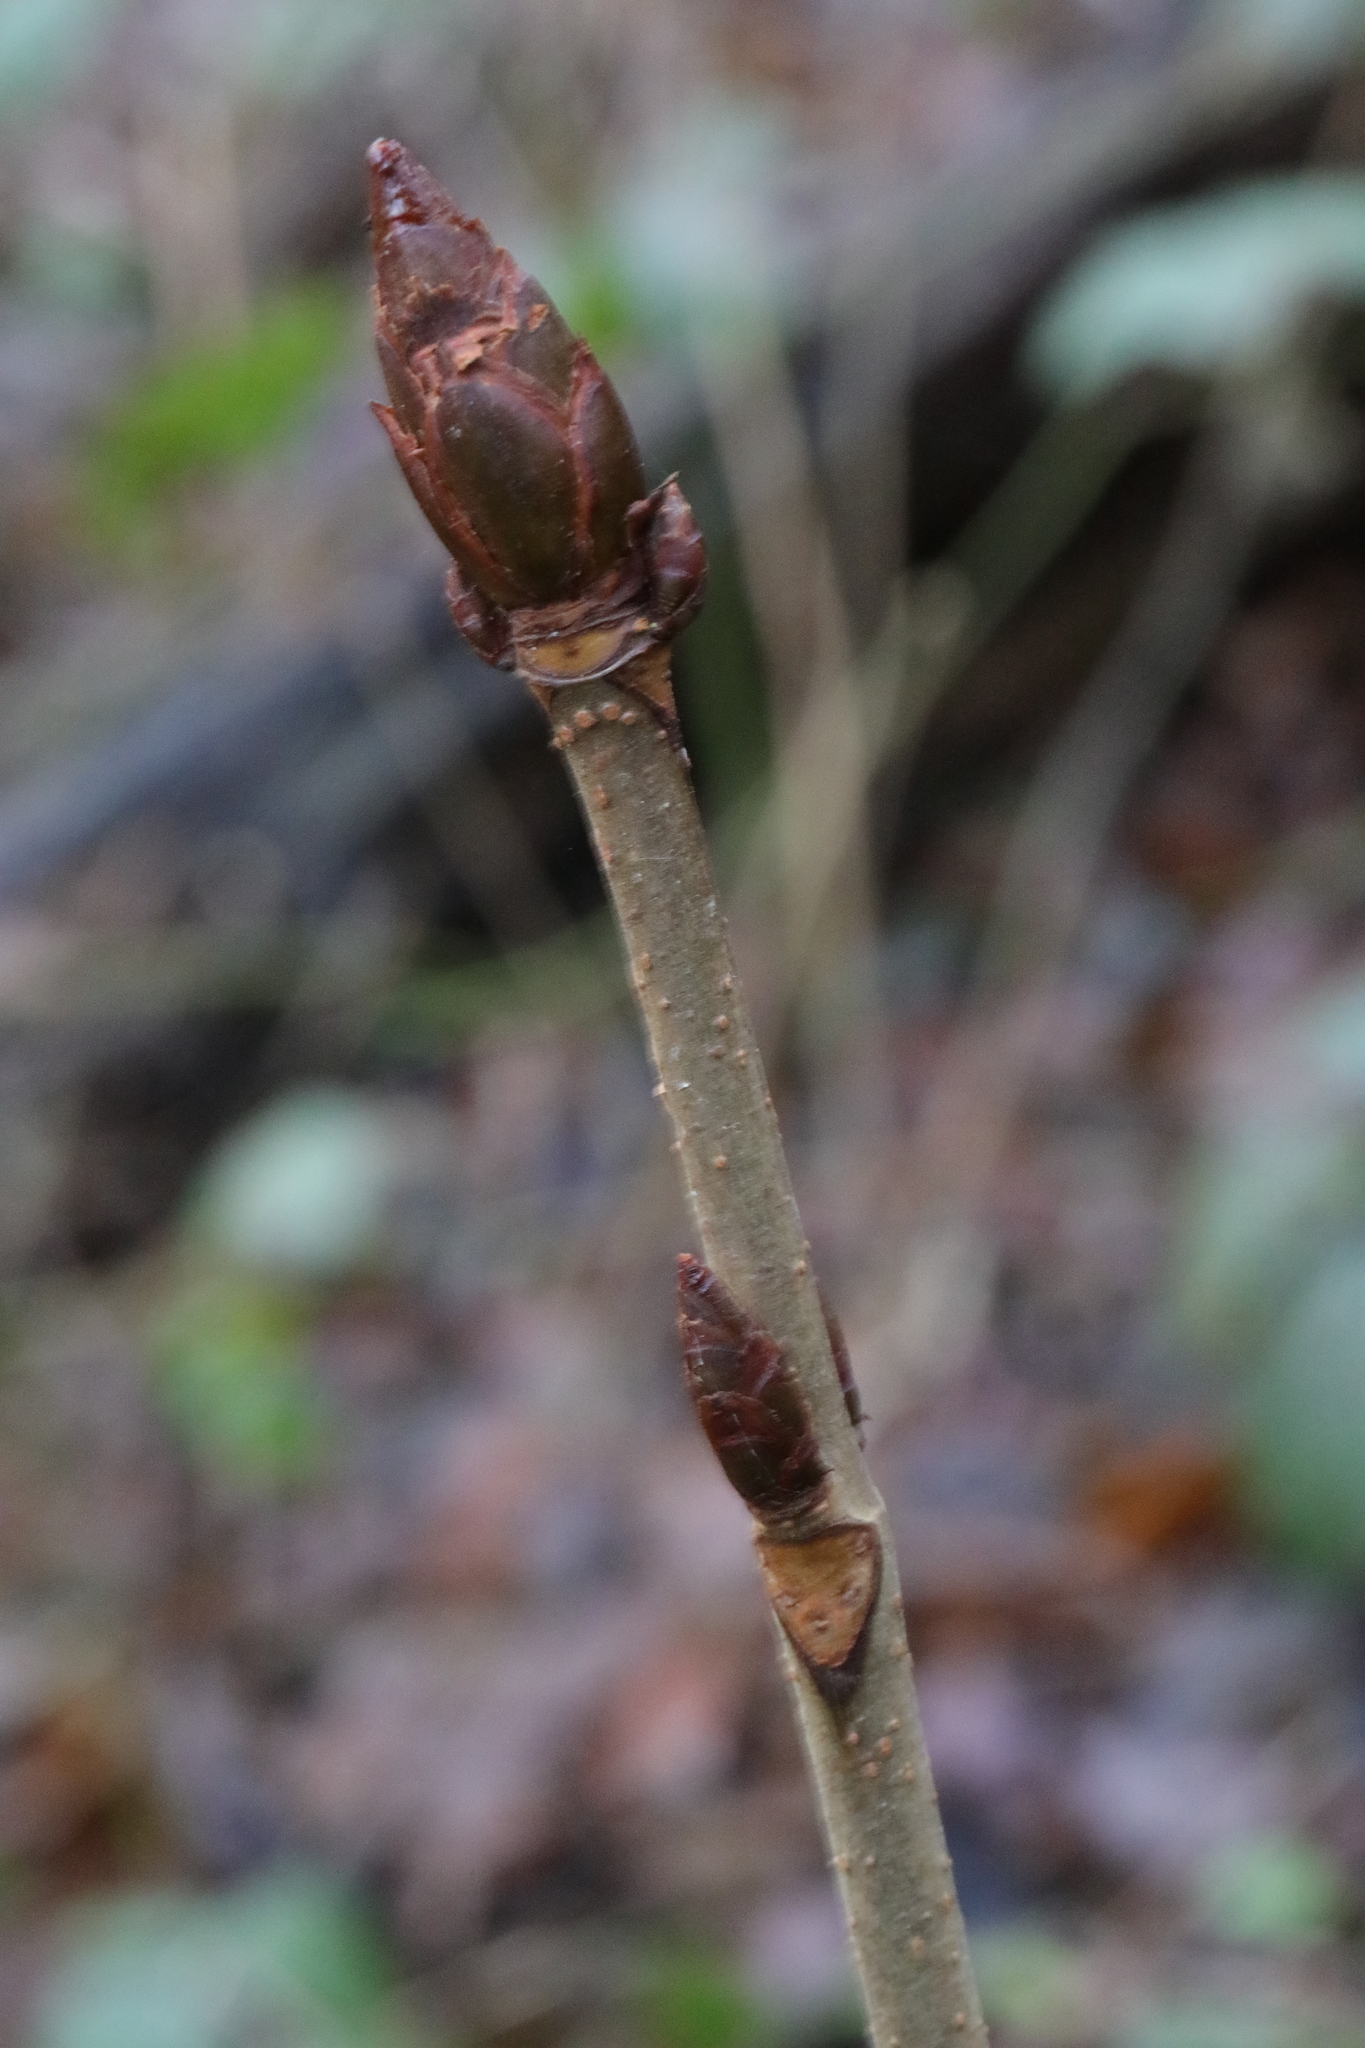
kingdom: Plantae
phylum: Tracheophyta
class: Magnoliopsida
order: Sapindales
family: Sapindaceae
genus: Aesculus
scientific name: Aesculus hippocastanum
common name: Horse-chestnut
